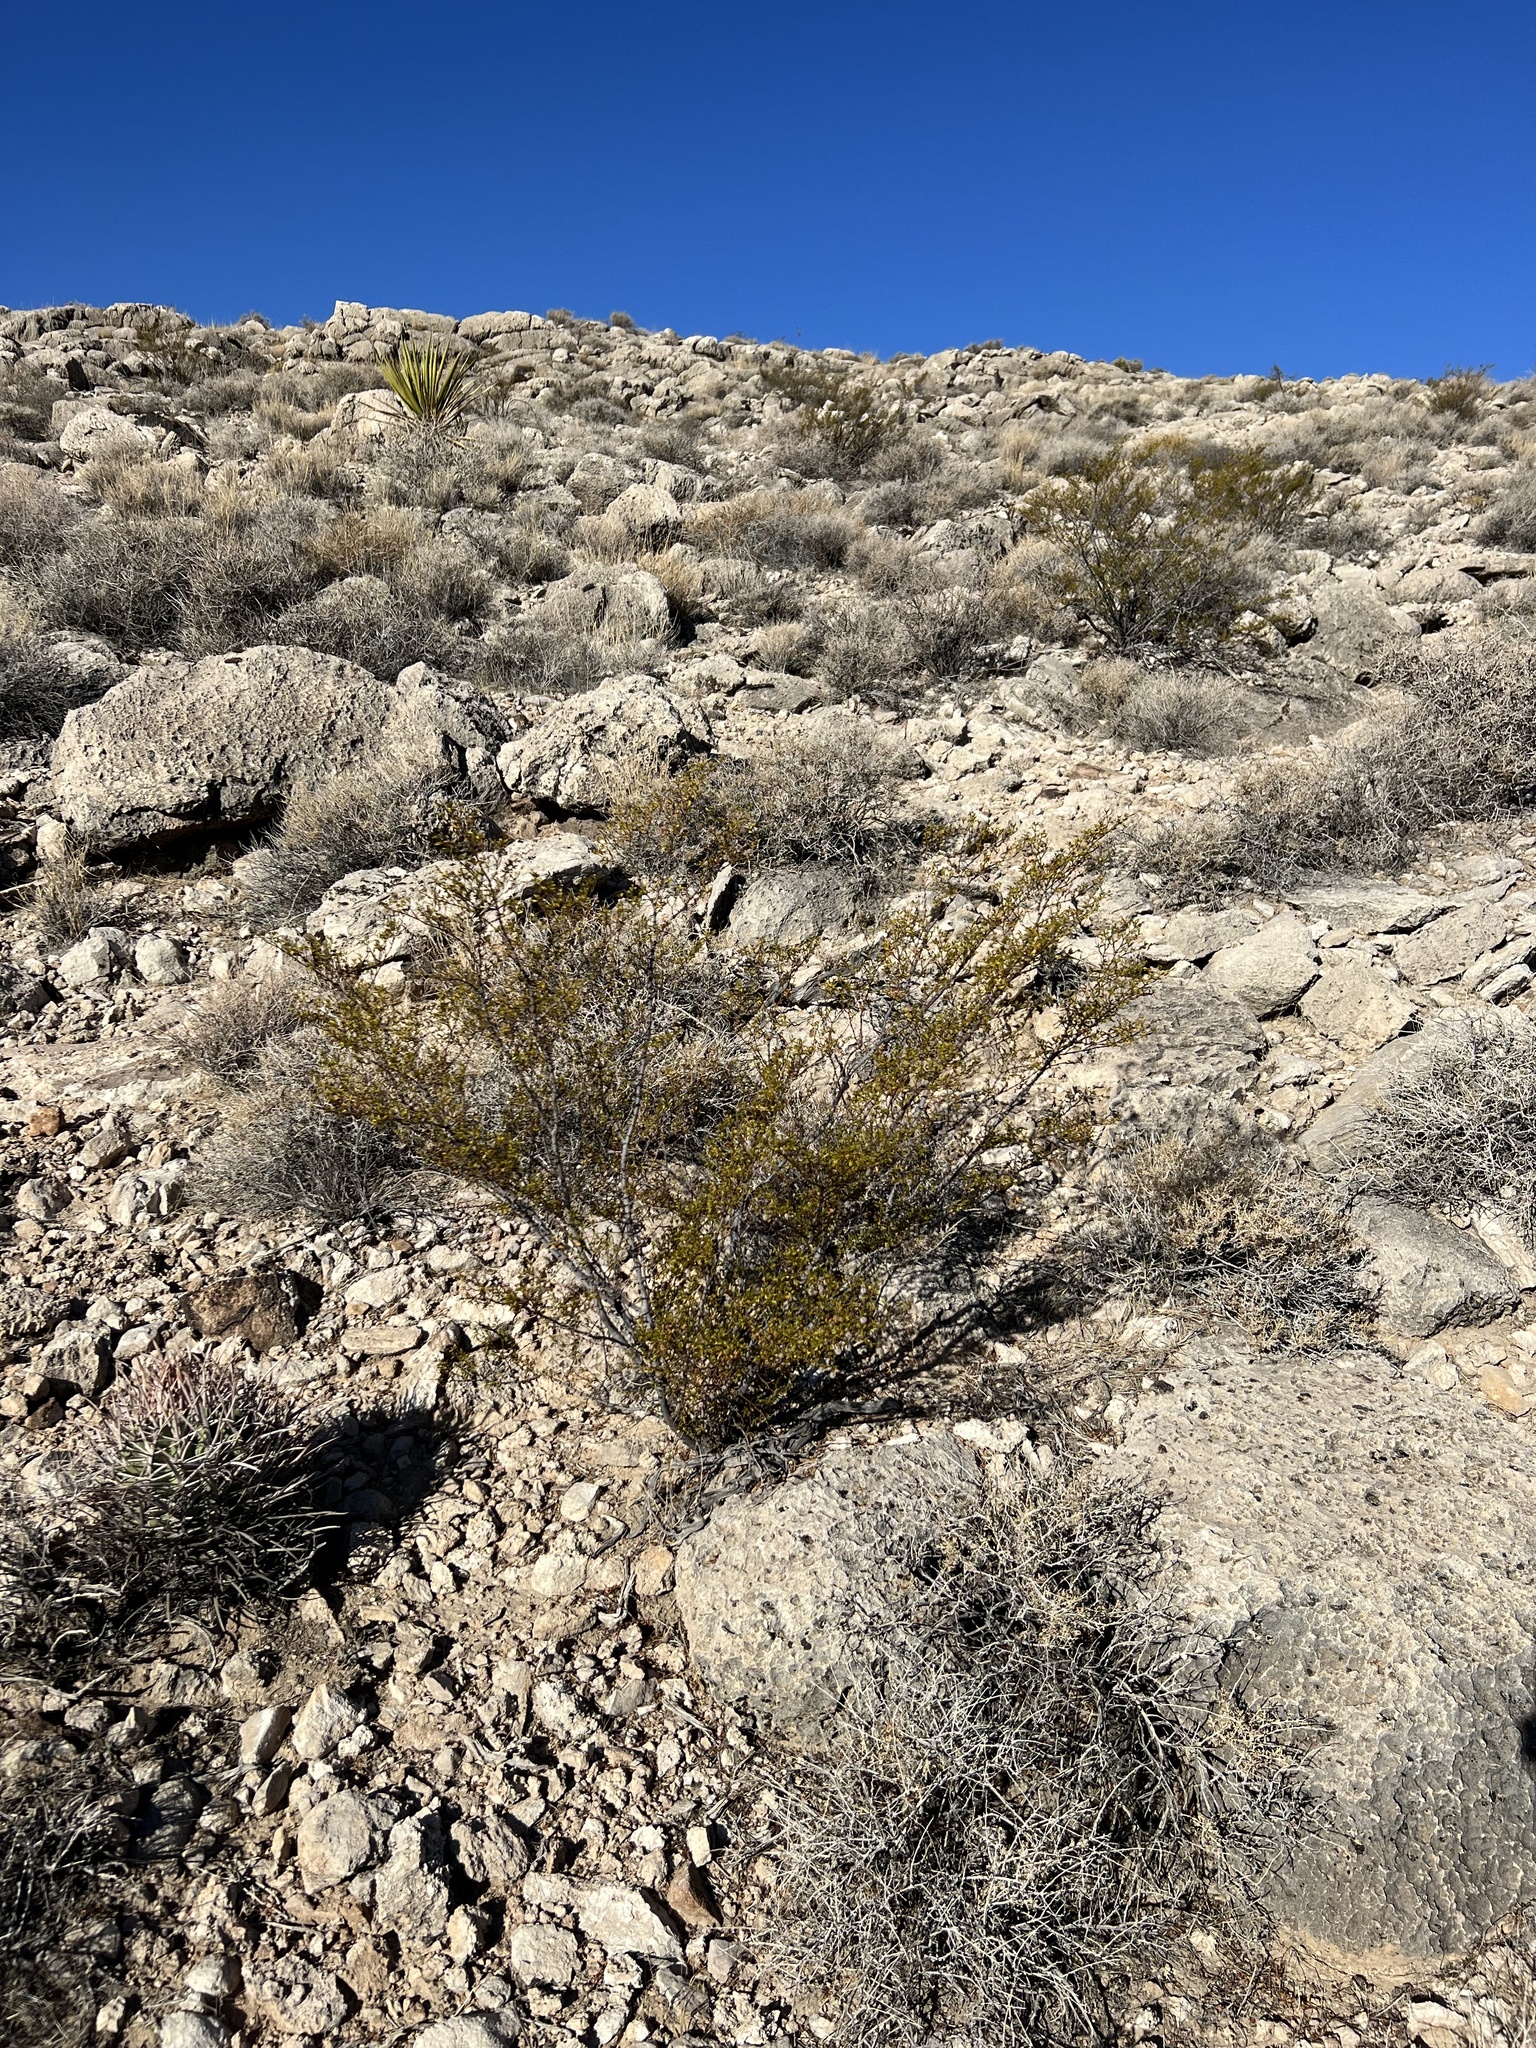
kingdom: Plantae
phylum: Tracheophyta
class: Magnoliopsida
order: Zygophyllales
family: Zygophyllaceae
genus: Larrea
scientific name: Larrea tridentata
